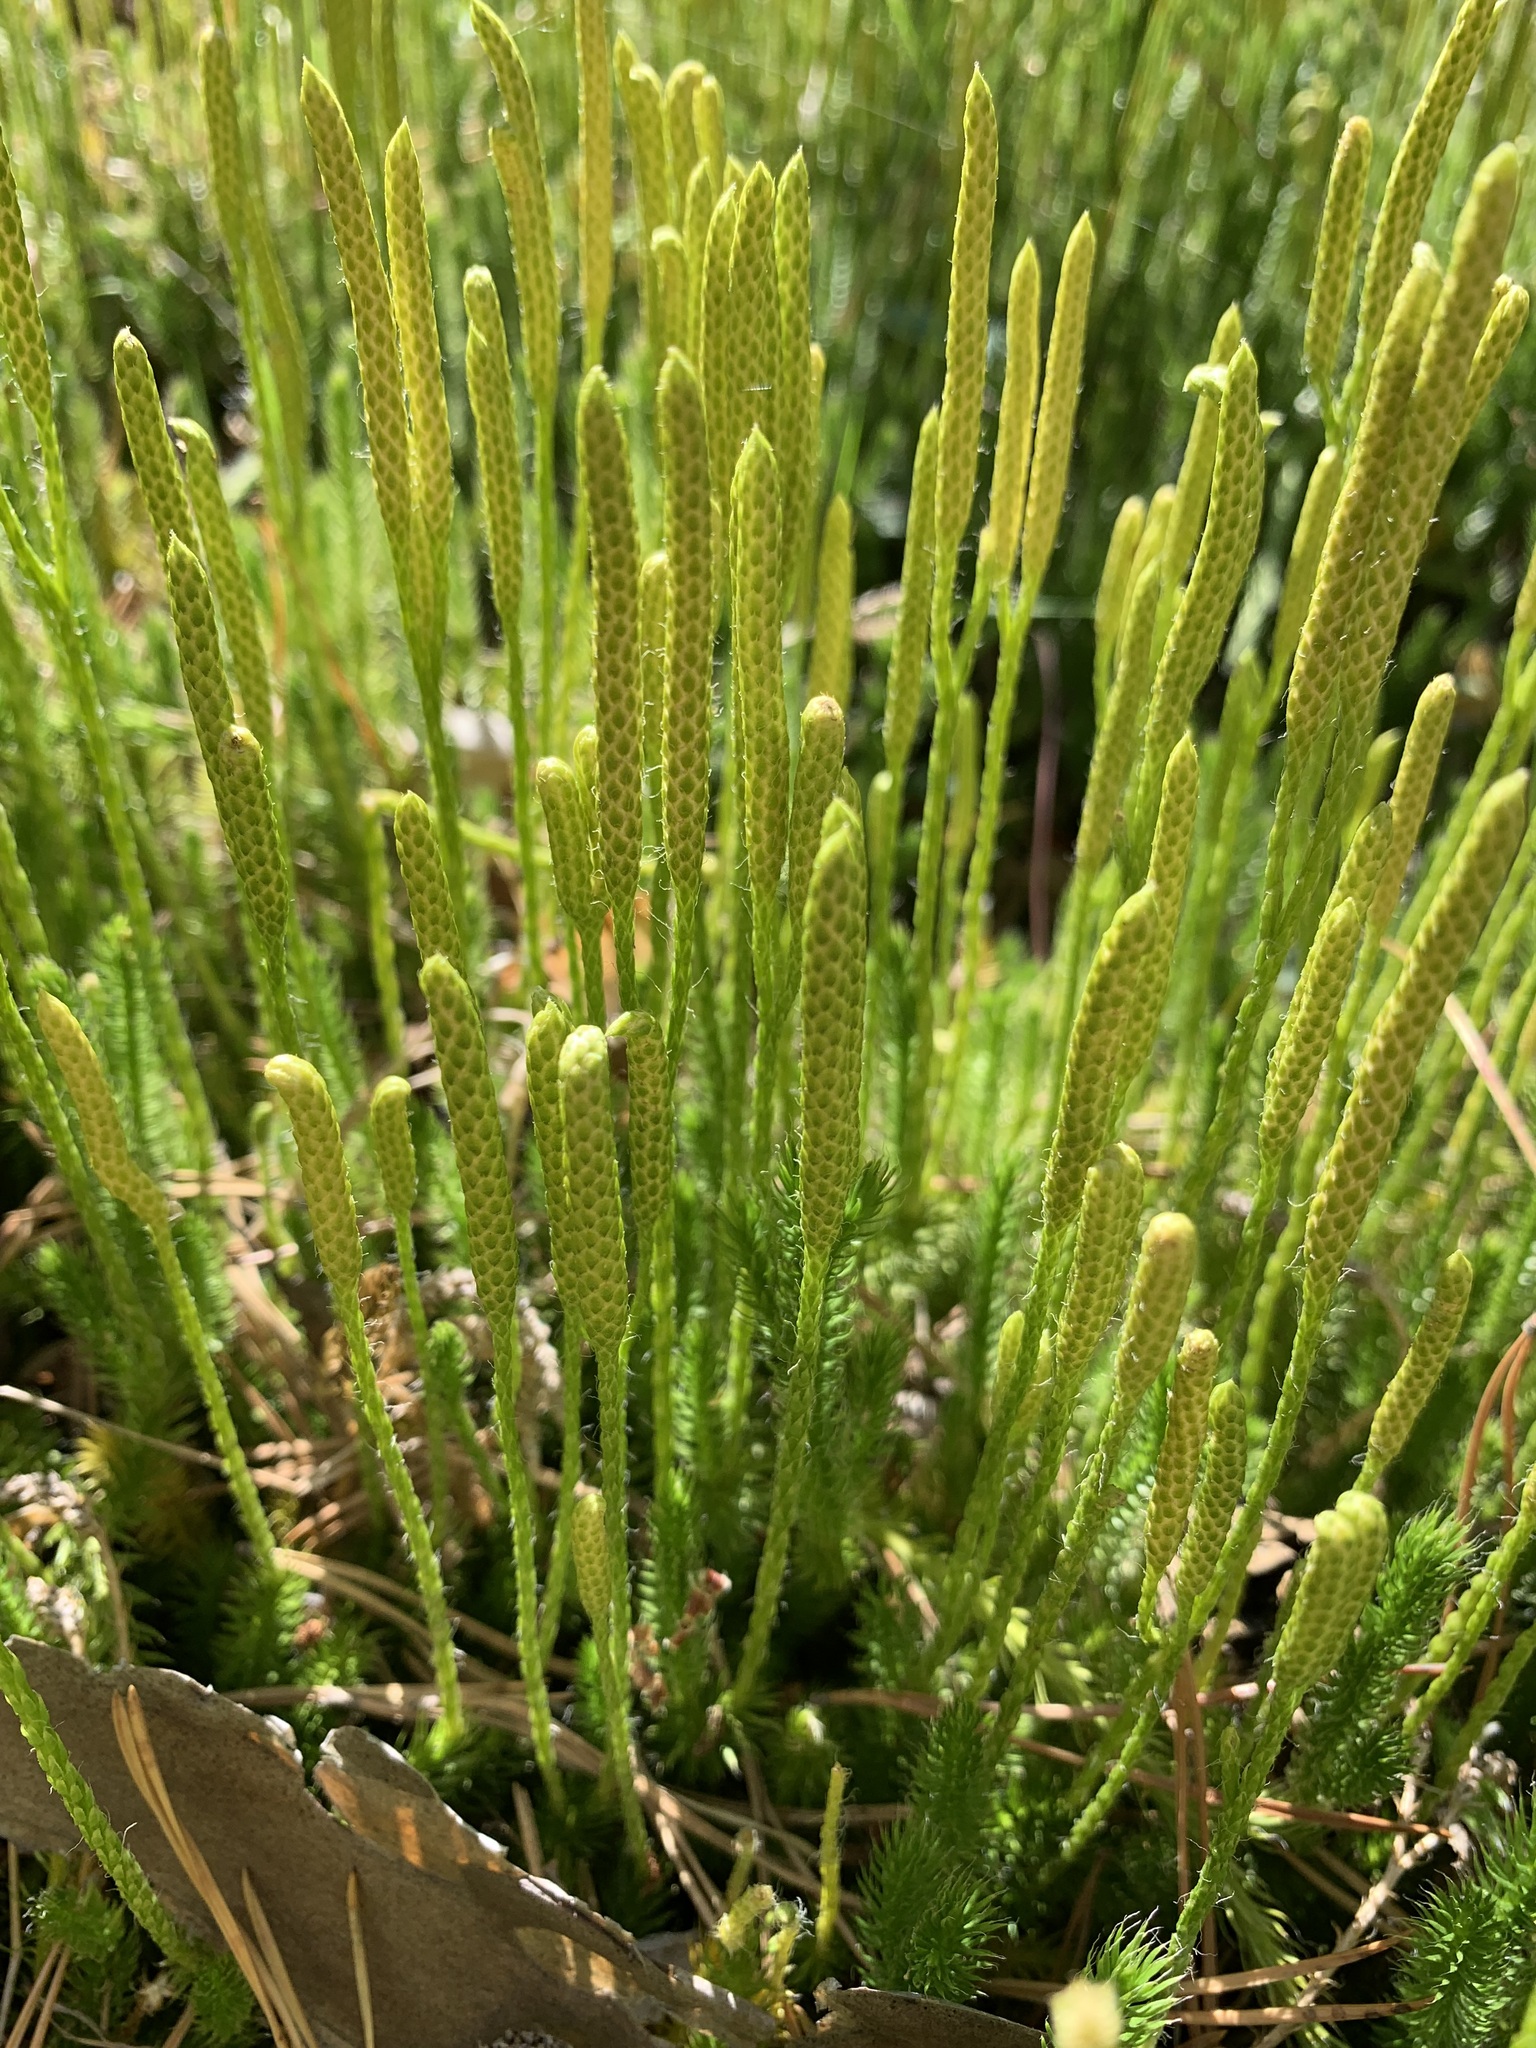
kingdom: Plantae
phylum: Tracheophyta
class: Lycopodiopsida
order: Lycopodiales
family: Lycopodiaceae
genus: Lycopodium
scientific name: Lycopodium clavatum
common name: Stag's-horn clubmoss
